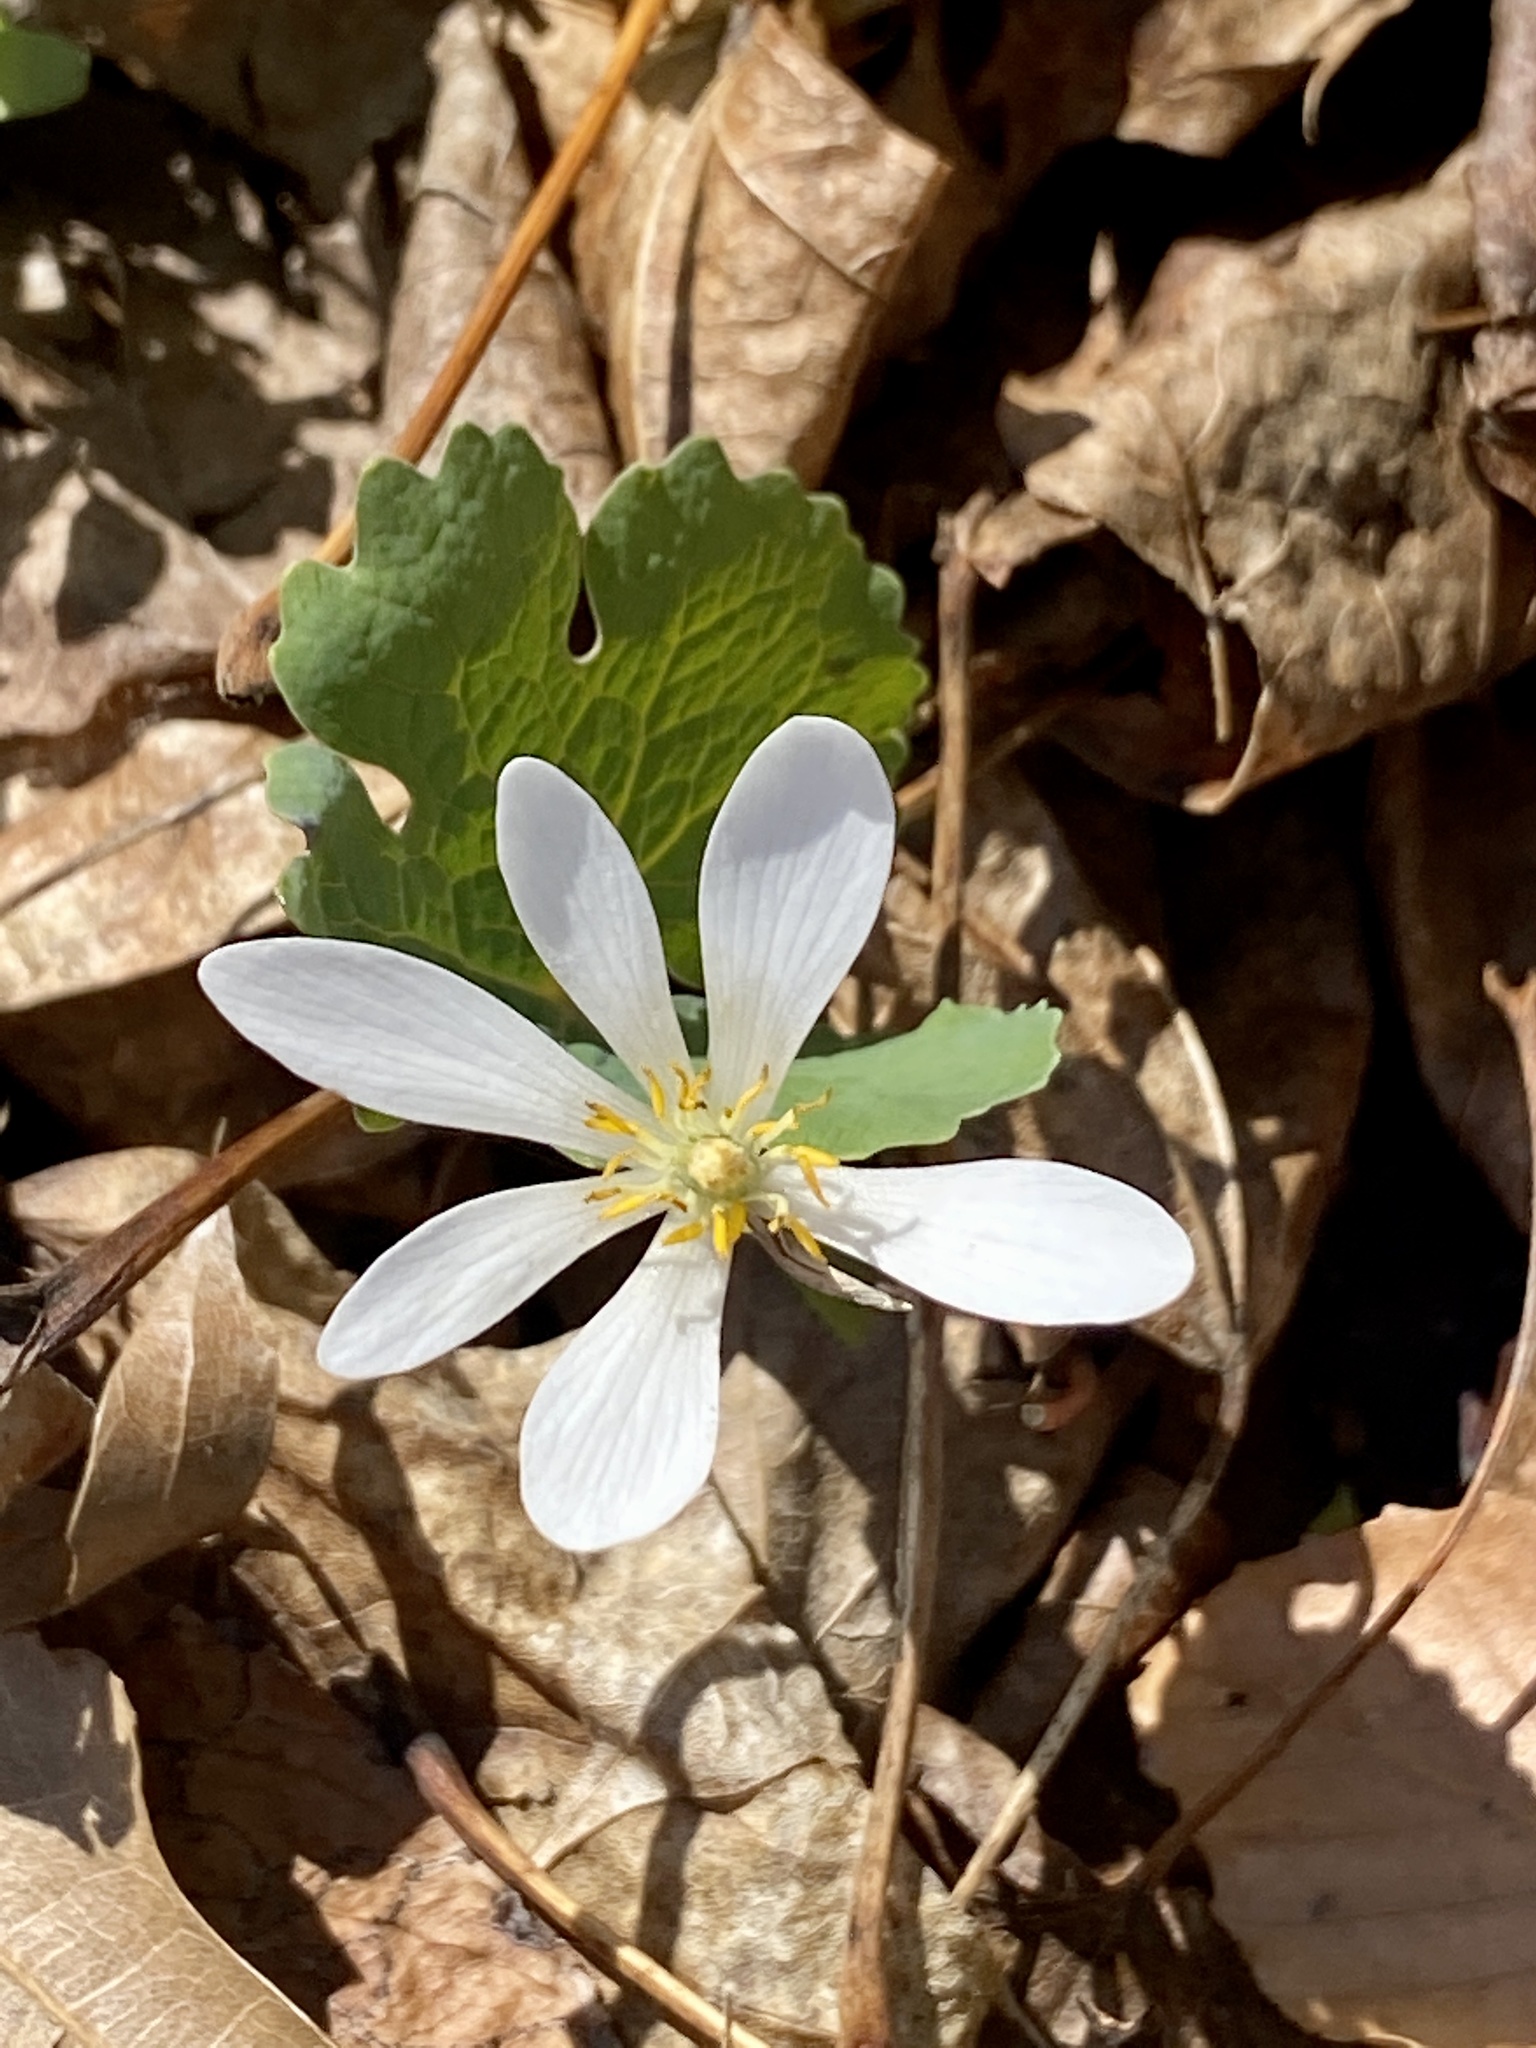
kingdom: Plantae
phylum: Tracheophyta
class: Magnoliopsida
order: Ranunculales
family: Papaveraceae
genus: Sanguinaria
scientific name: Sanguinaria canadensis
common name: Bloodroot
